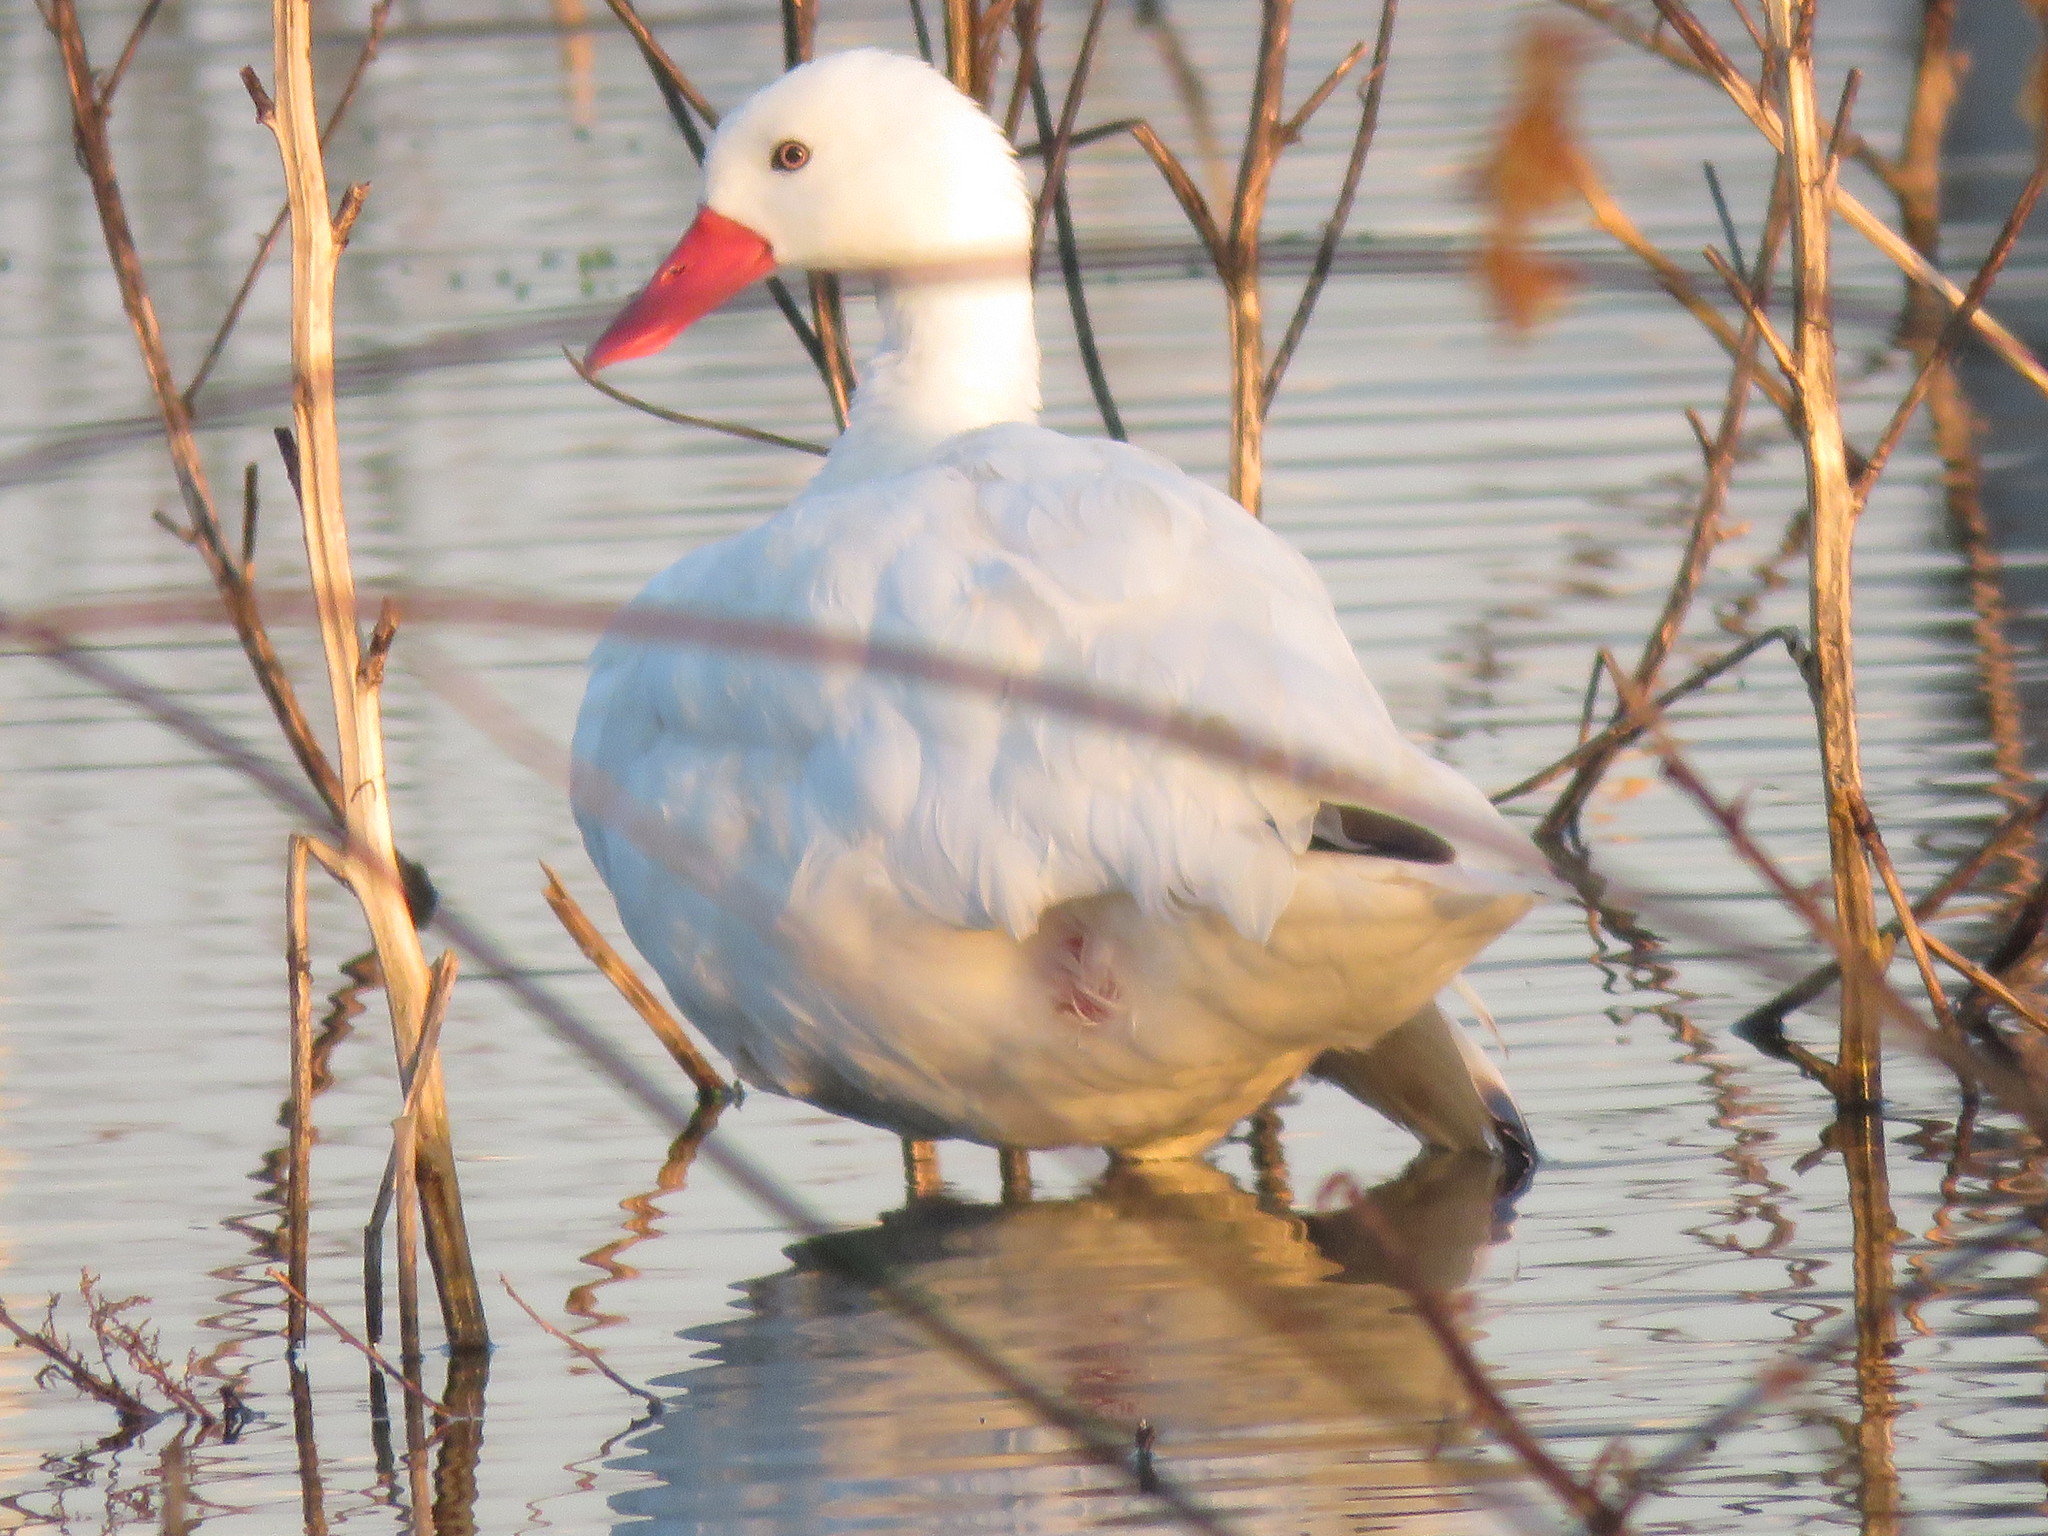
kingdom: Animalia
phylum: Chordata
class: Aves
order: Anseriformes
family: Anatidae
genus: Coscoroba
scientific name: Coscoroba coscoroba
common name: Coscoroba swan
